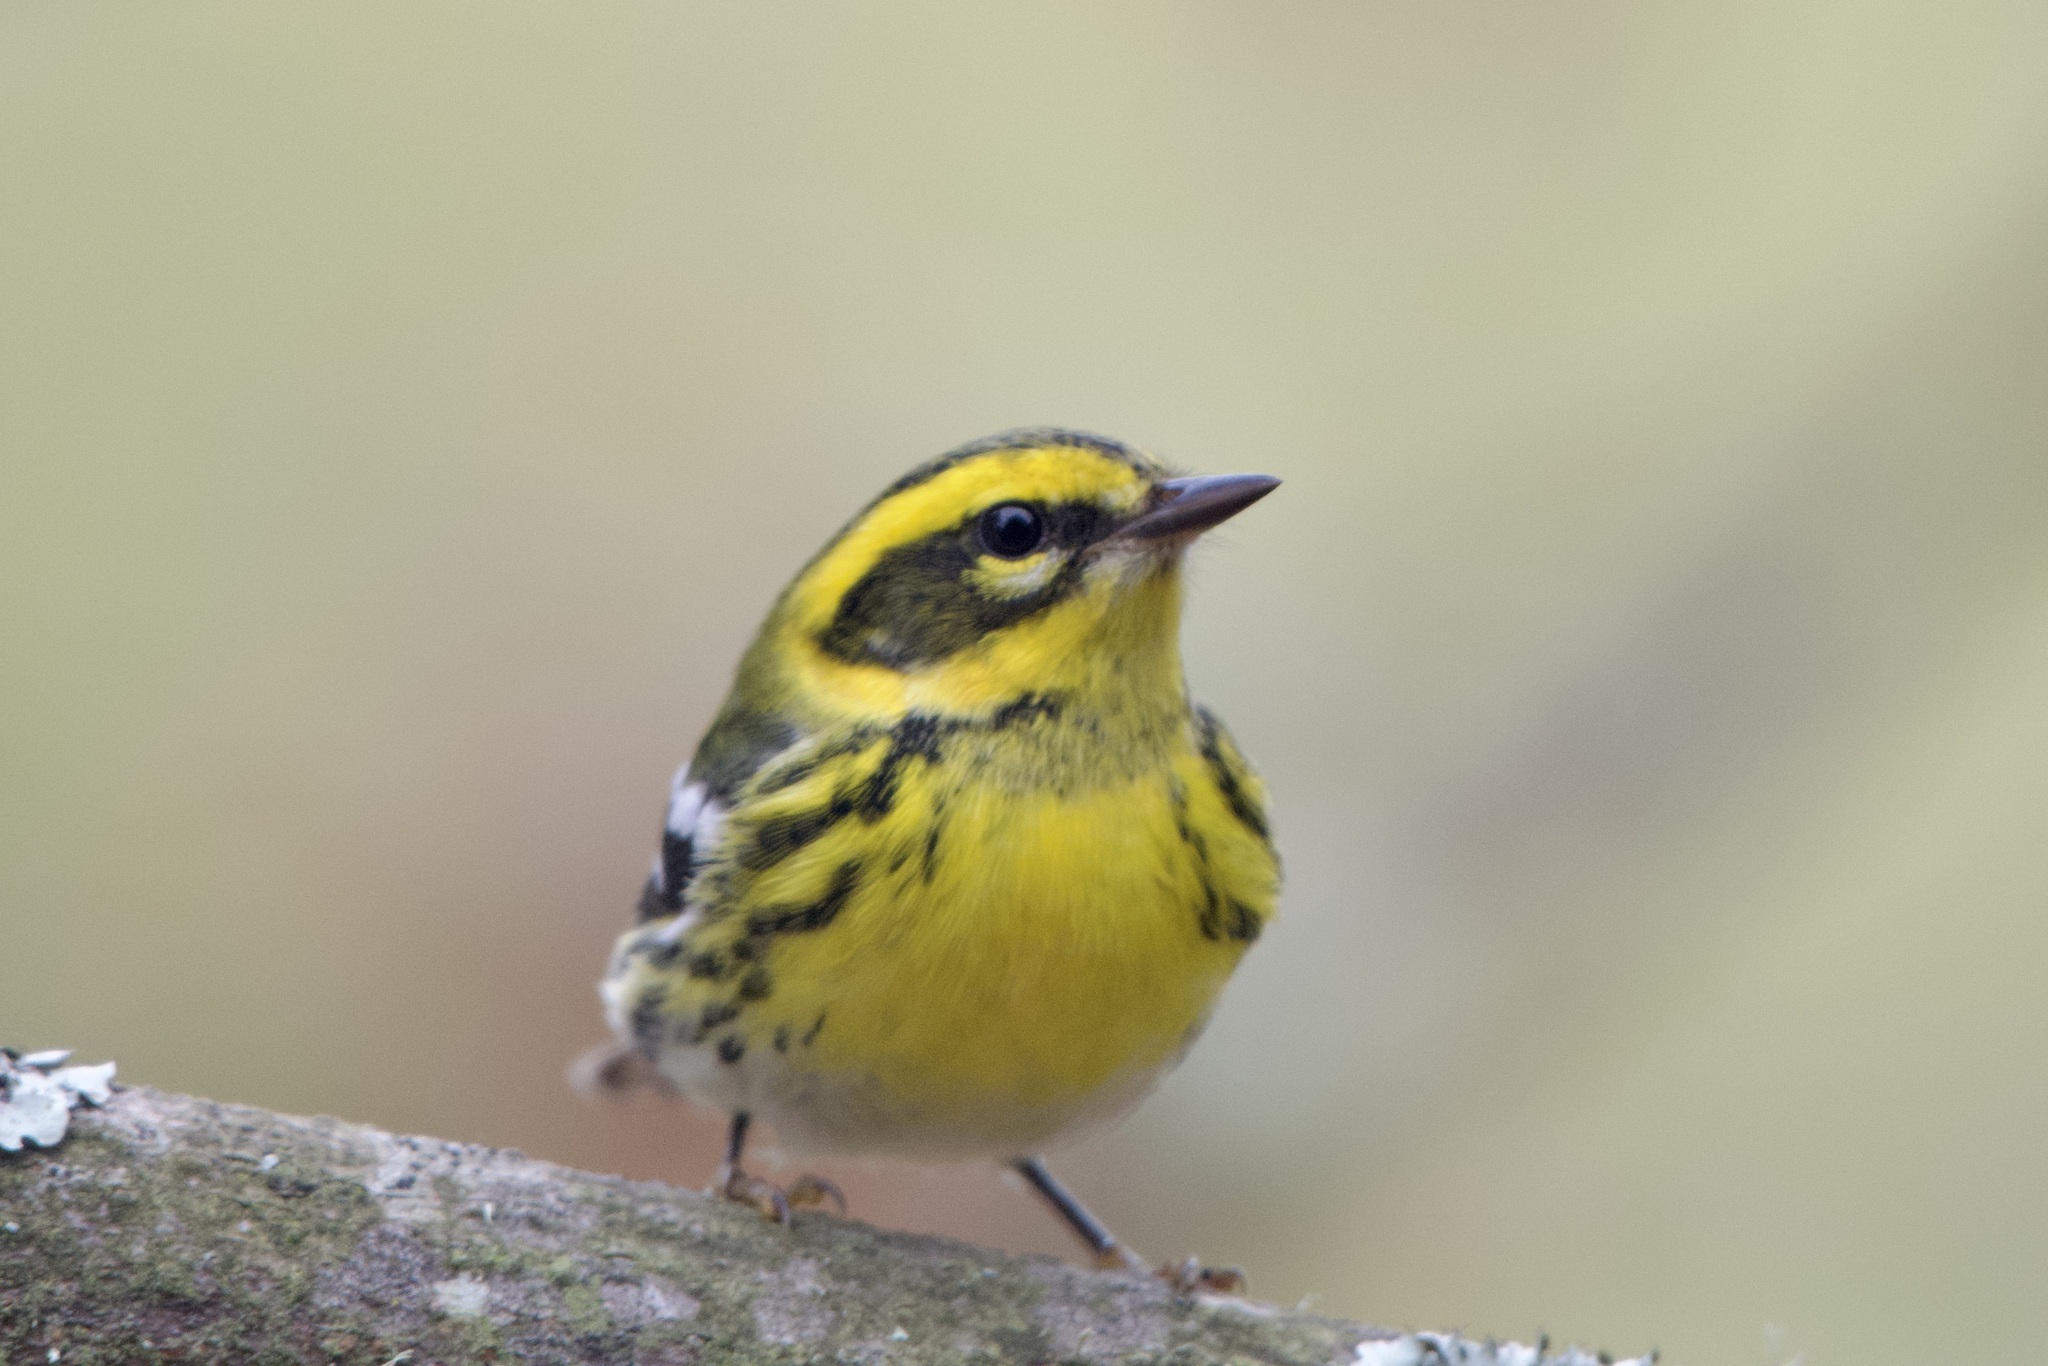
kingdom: Animalia
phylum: Chordata
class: Aves
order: Passeriformes
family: Parulidae
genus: Setophaga
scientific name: Setophaga townsendi
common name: Townsend's warbler
